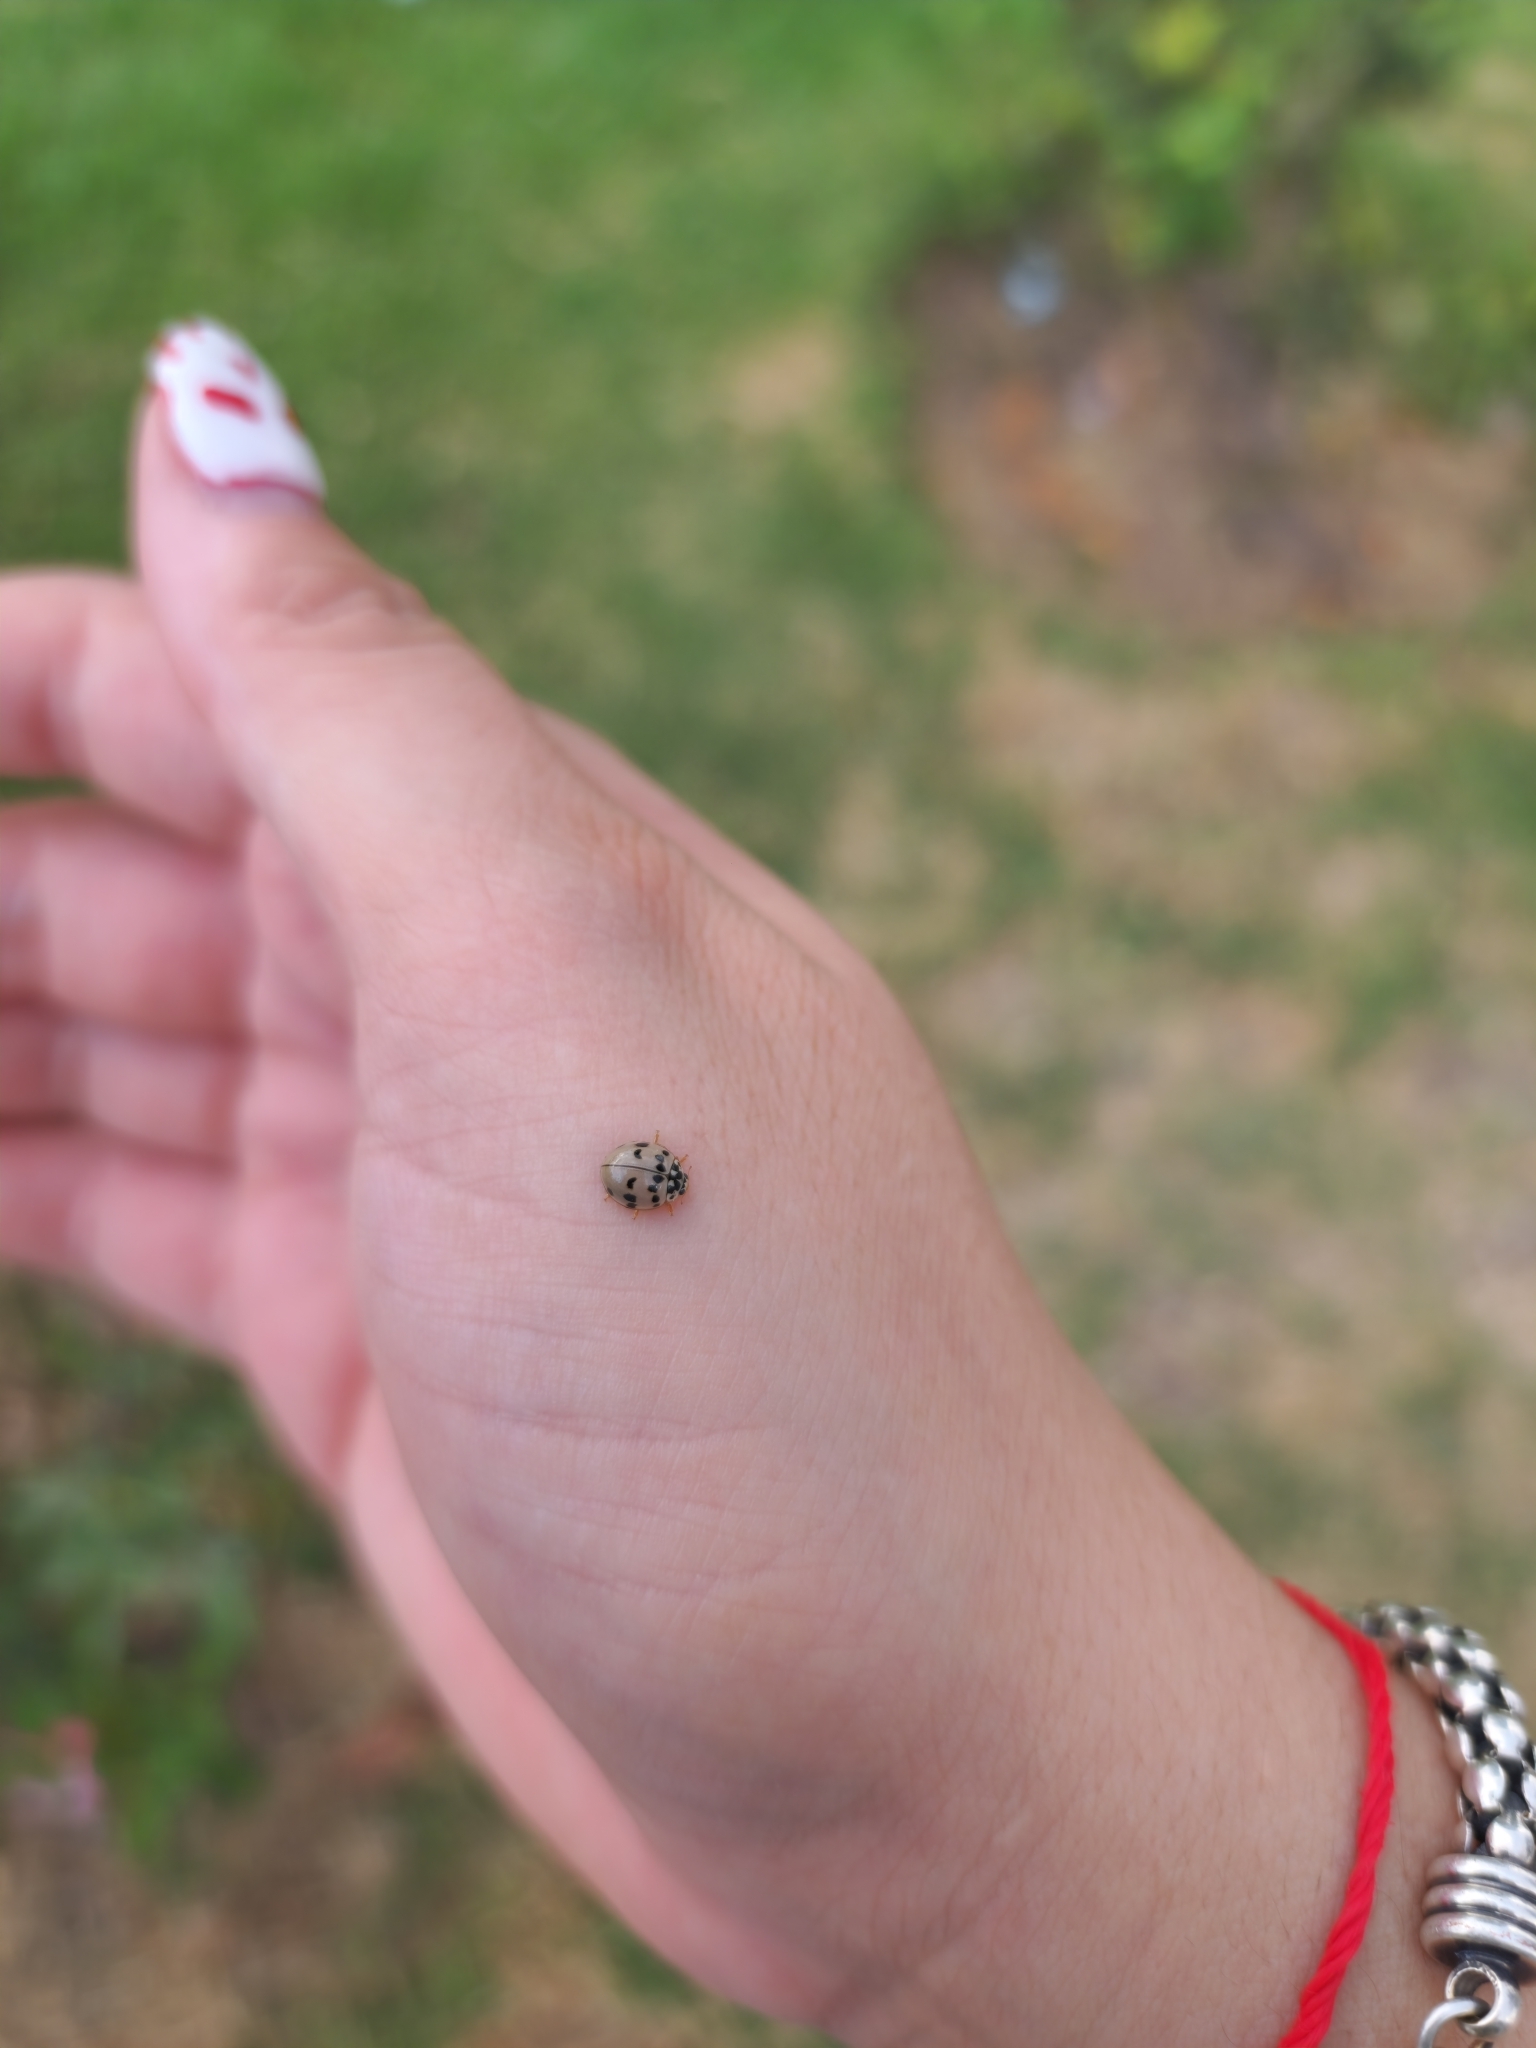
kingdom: Animalia
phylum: Arthropoda
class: Insecta
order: Coleoptera
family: Coccinellidae
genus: Olla
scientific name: Olla v-nigrum
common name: Ashy gray lady beetle
